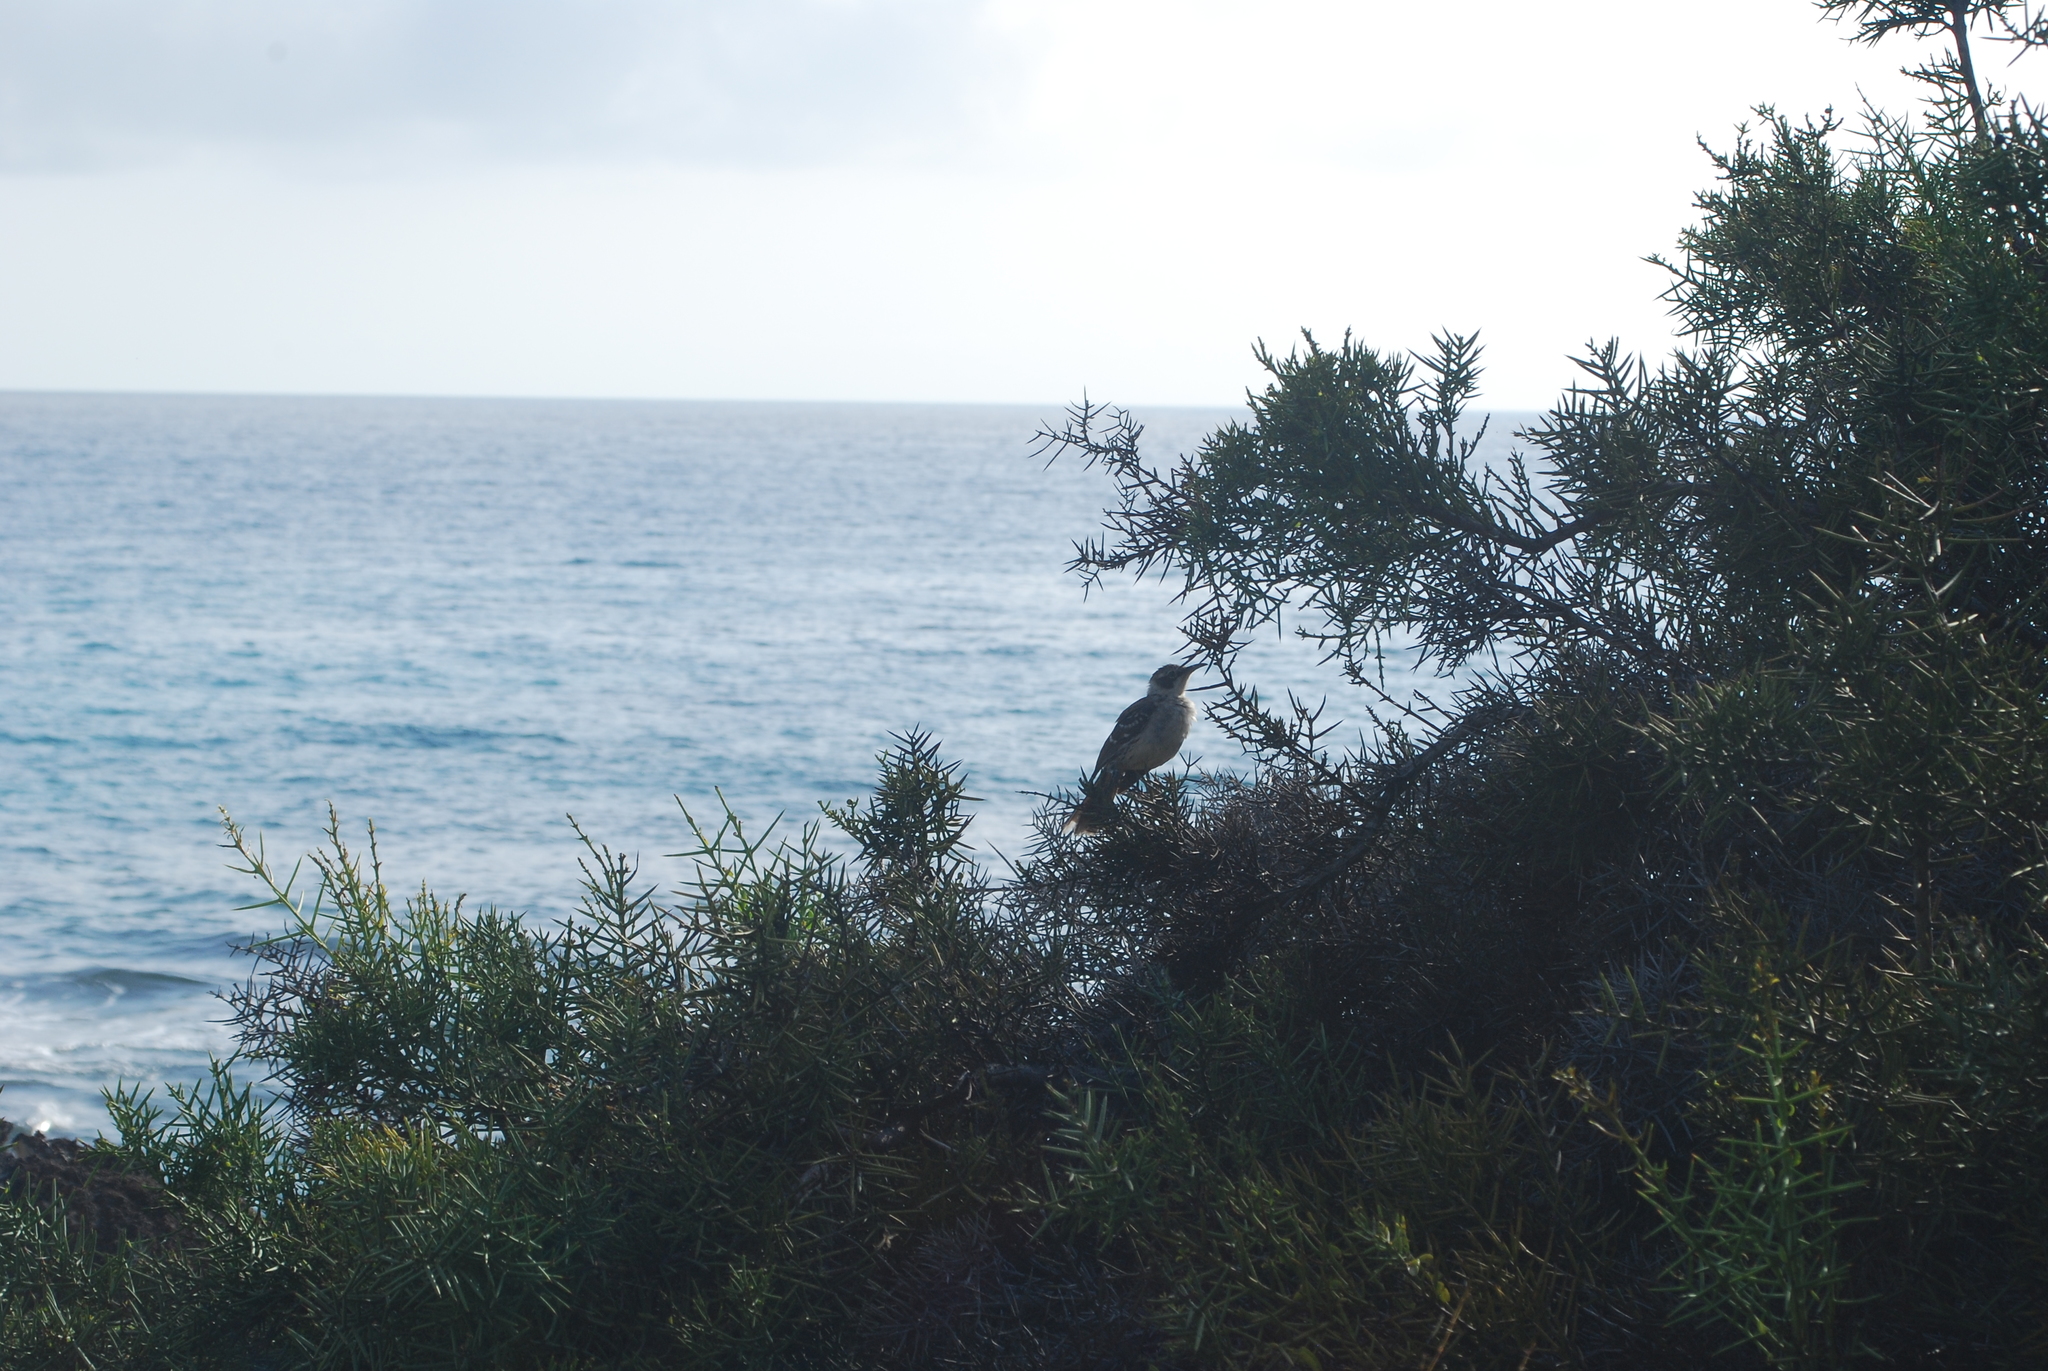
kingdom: Animalia
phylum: Chordata
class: Aves
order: Passeriformes
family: Mimidae
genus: Mimus
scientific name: Mimus parvulus
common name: Galapagos mockingbird
